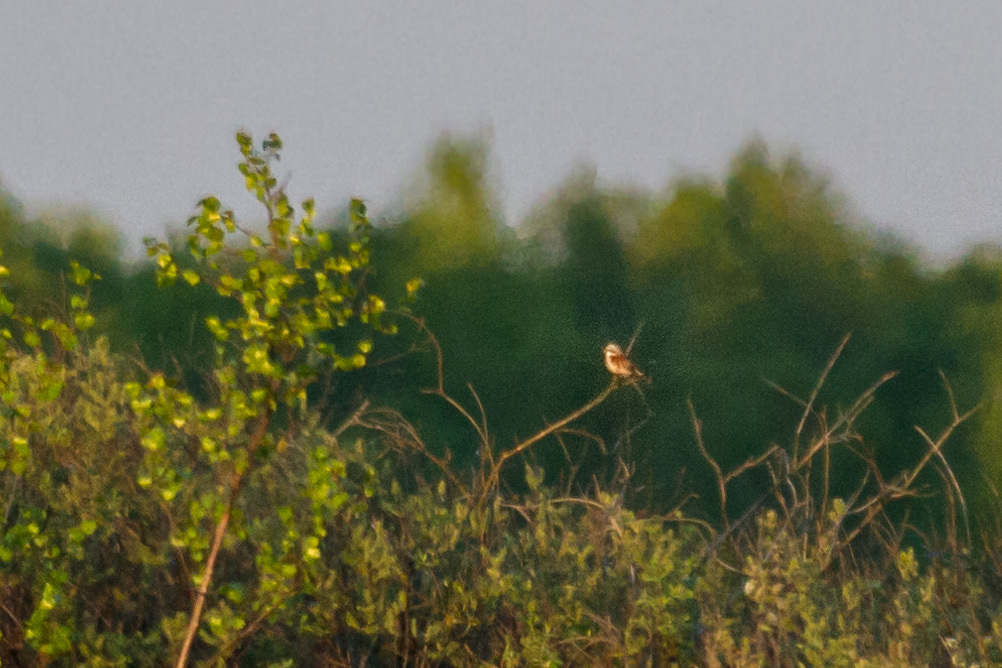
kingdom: Animalia
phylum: Chordata
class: Aves
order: Passeriformes
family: Laniidae
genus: Lanius
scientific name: Lanius collurio
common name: Red-backed shrike
